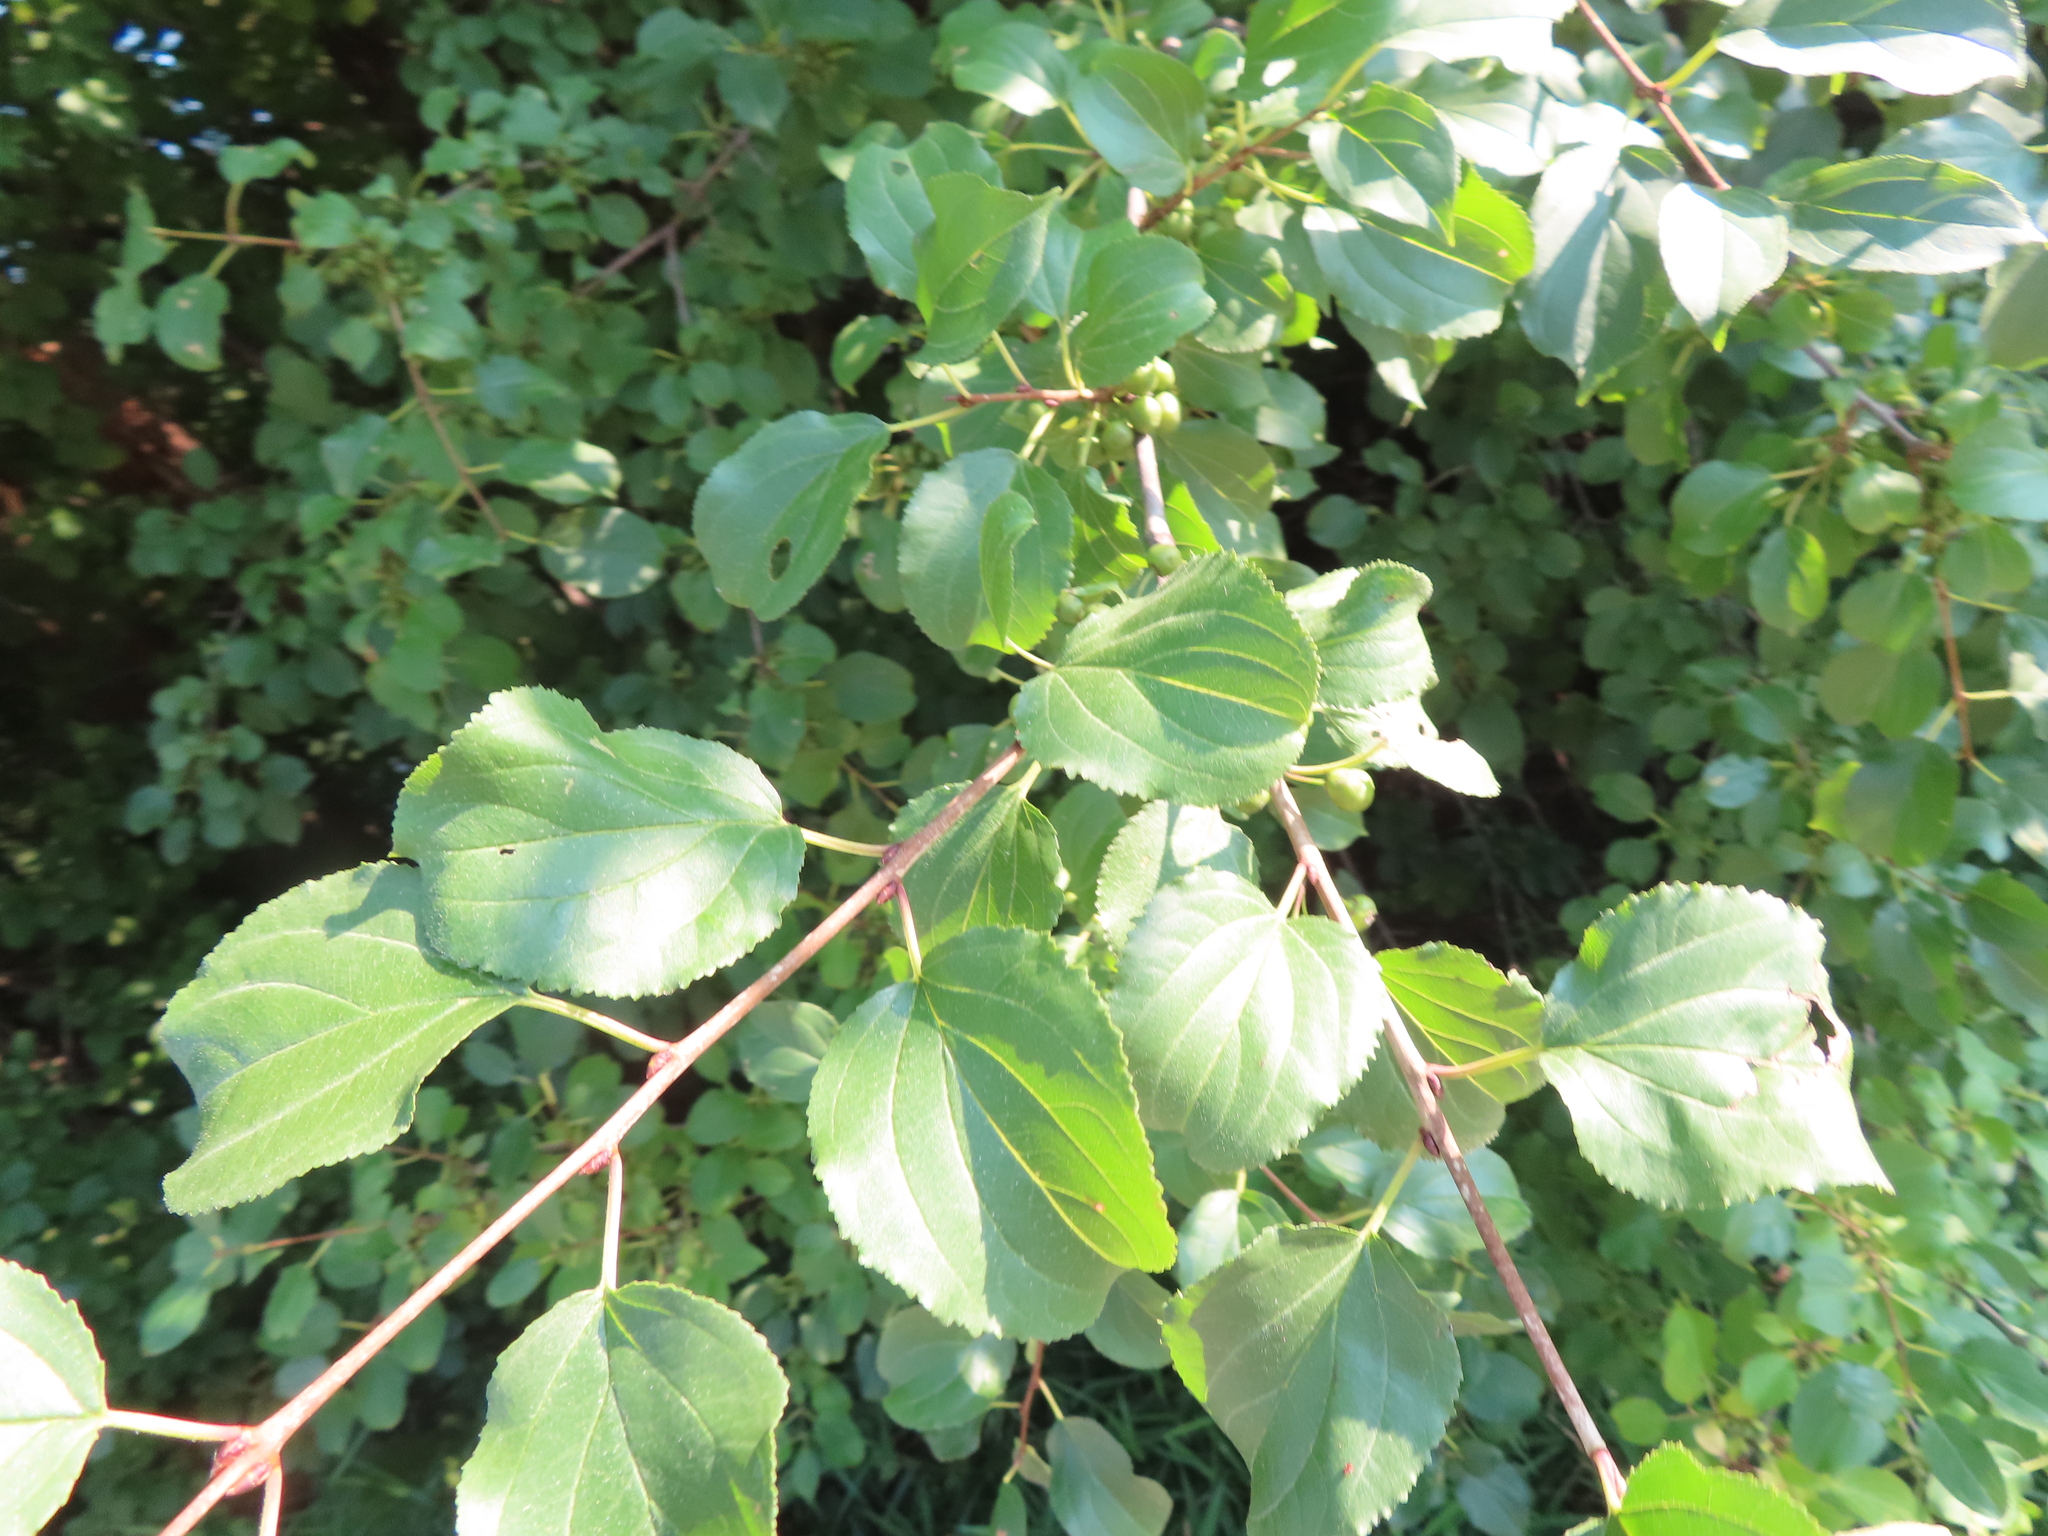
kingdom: Plantae
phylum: Tracheophyta
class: Magnoliopsida
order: Rosales
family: Rhamnaceae
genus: Rhamnus
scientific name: Rhamnus cathartica
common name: Common buckthorn
